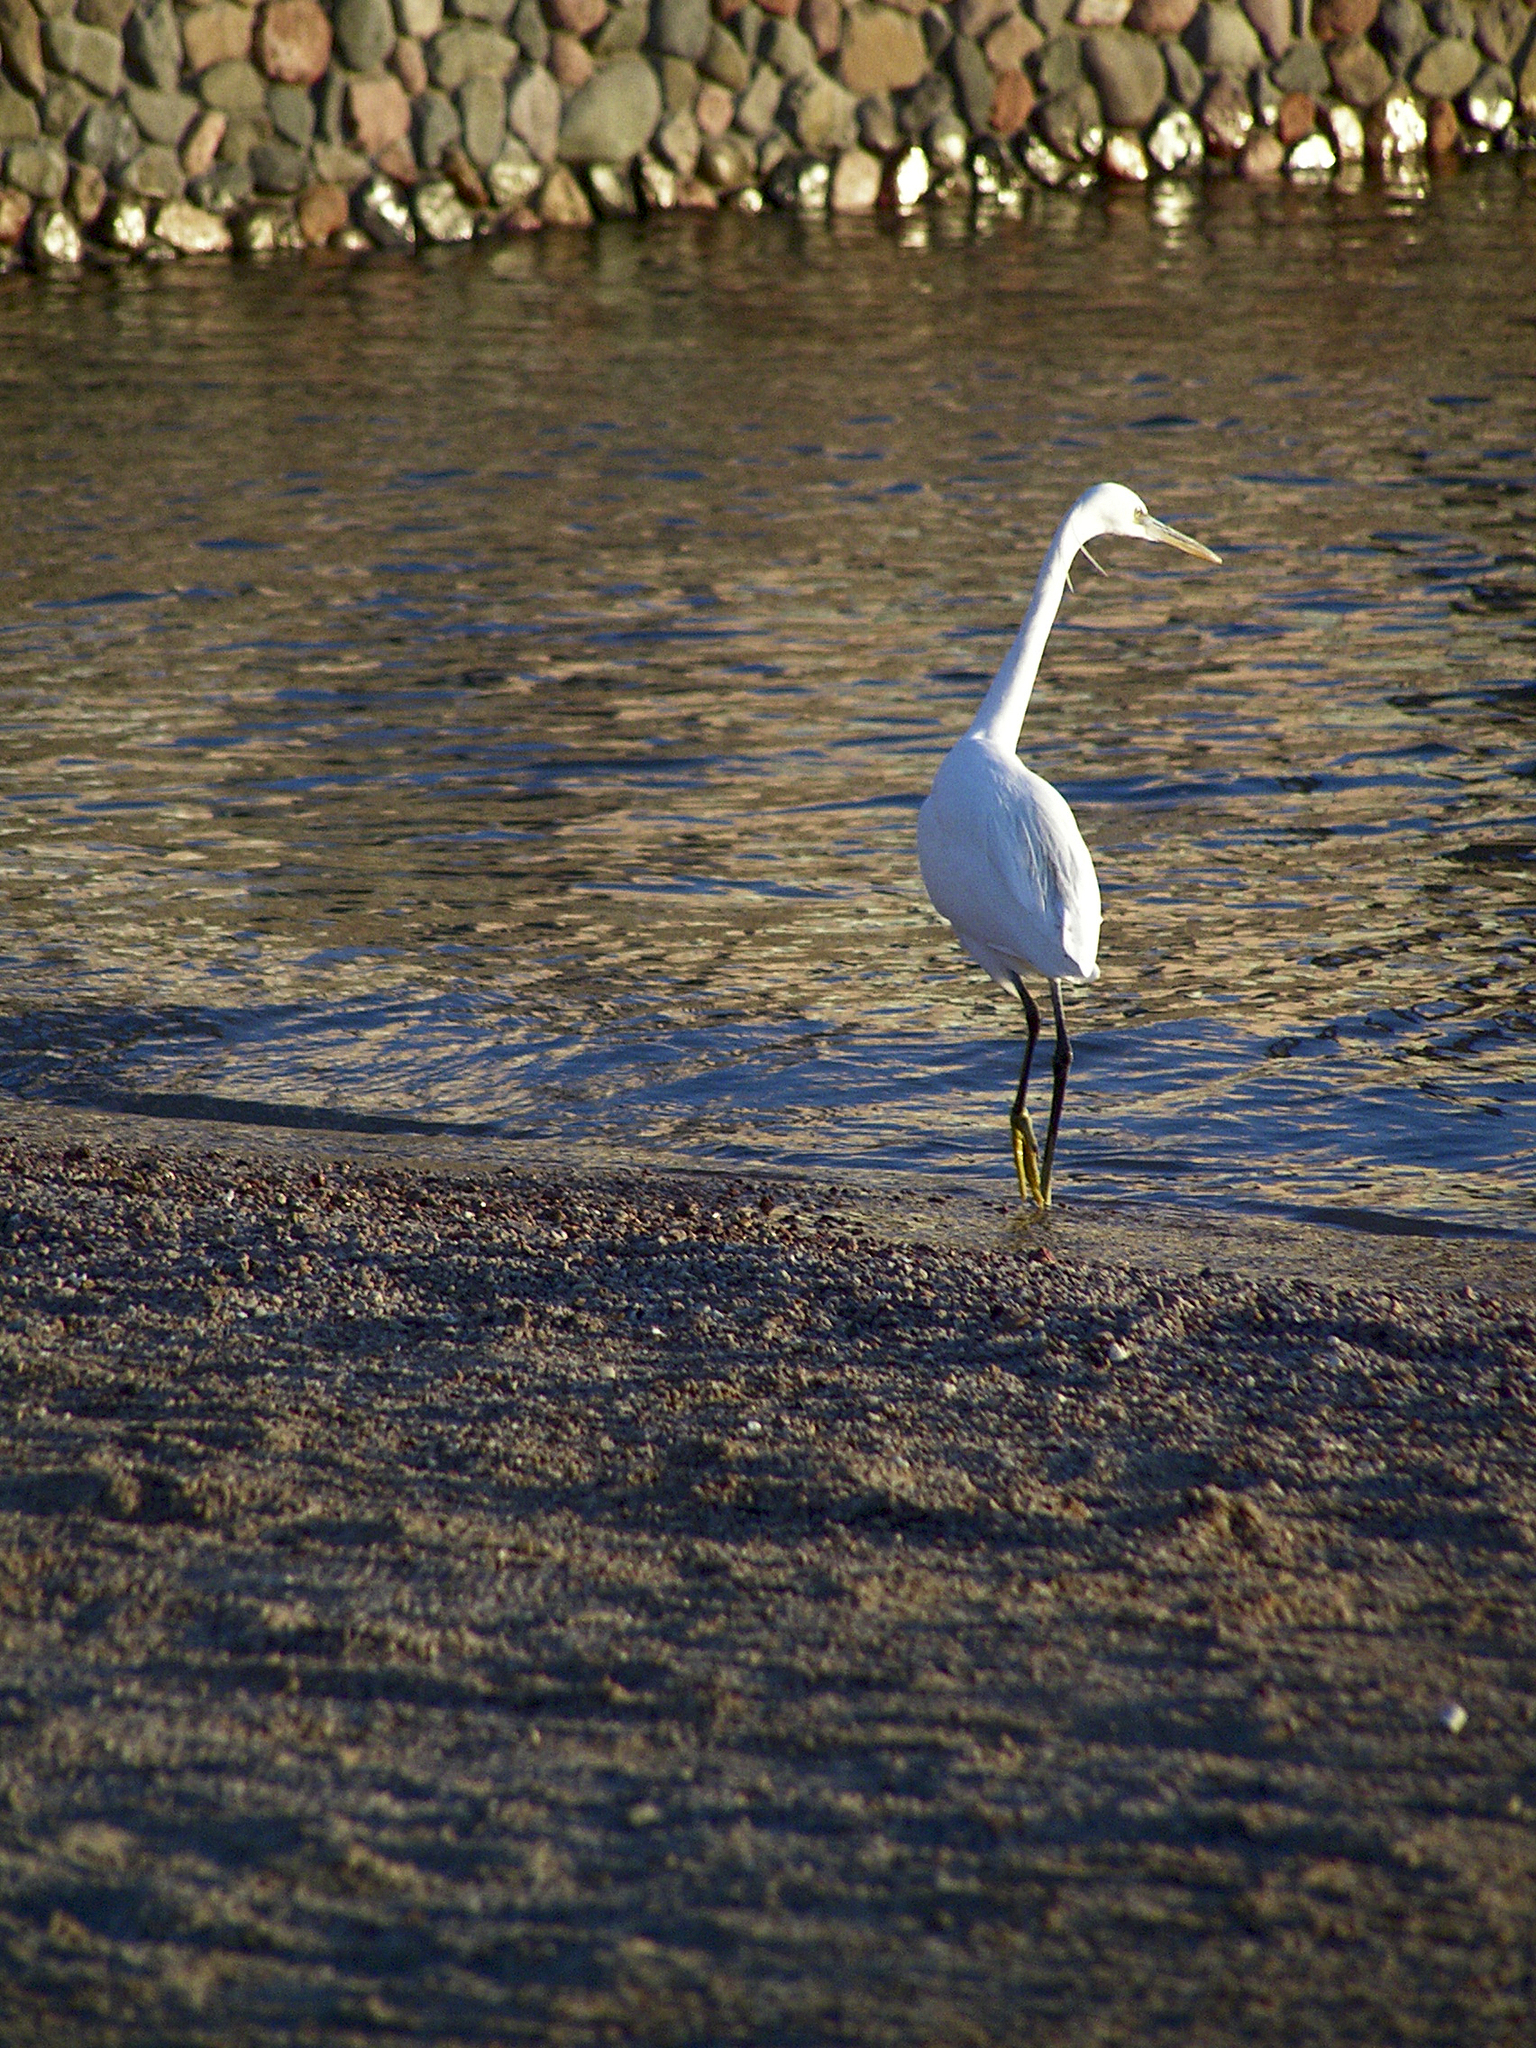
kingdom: Animalia
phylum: Chordata
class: Aves
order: Pelecaniformes
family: Ardeidae
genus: Egretta
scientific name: Egretta gularis
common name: Western reef-heron
